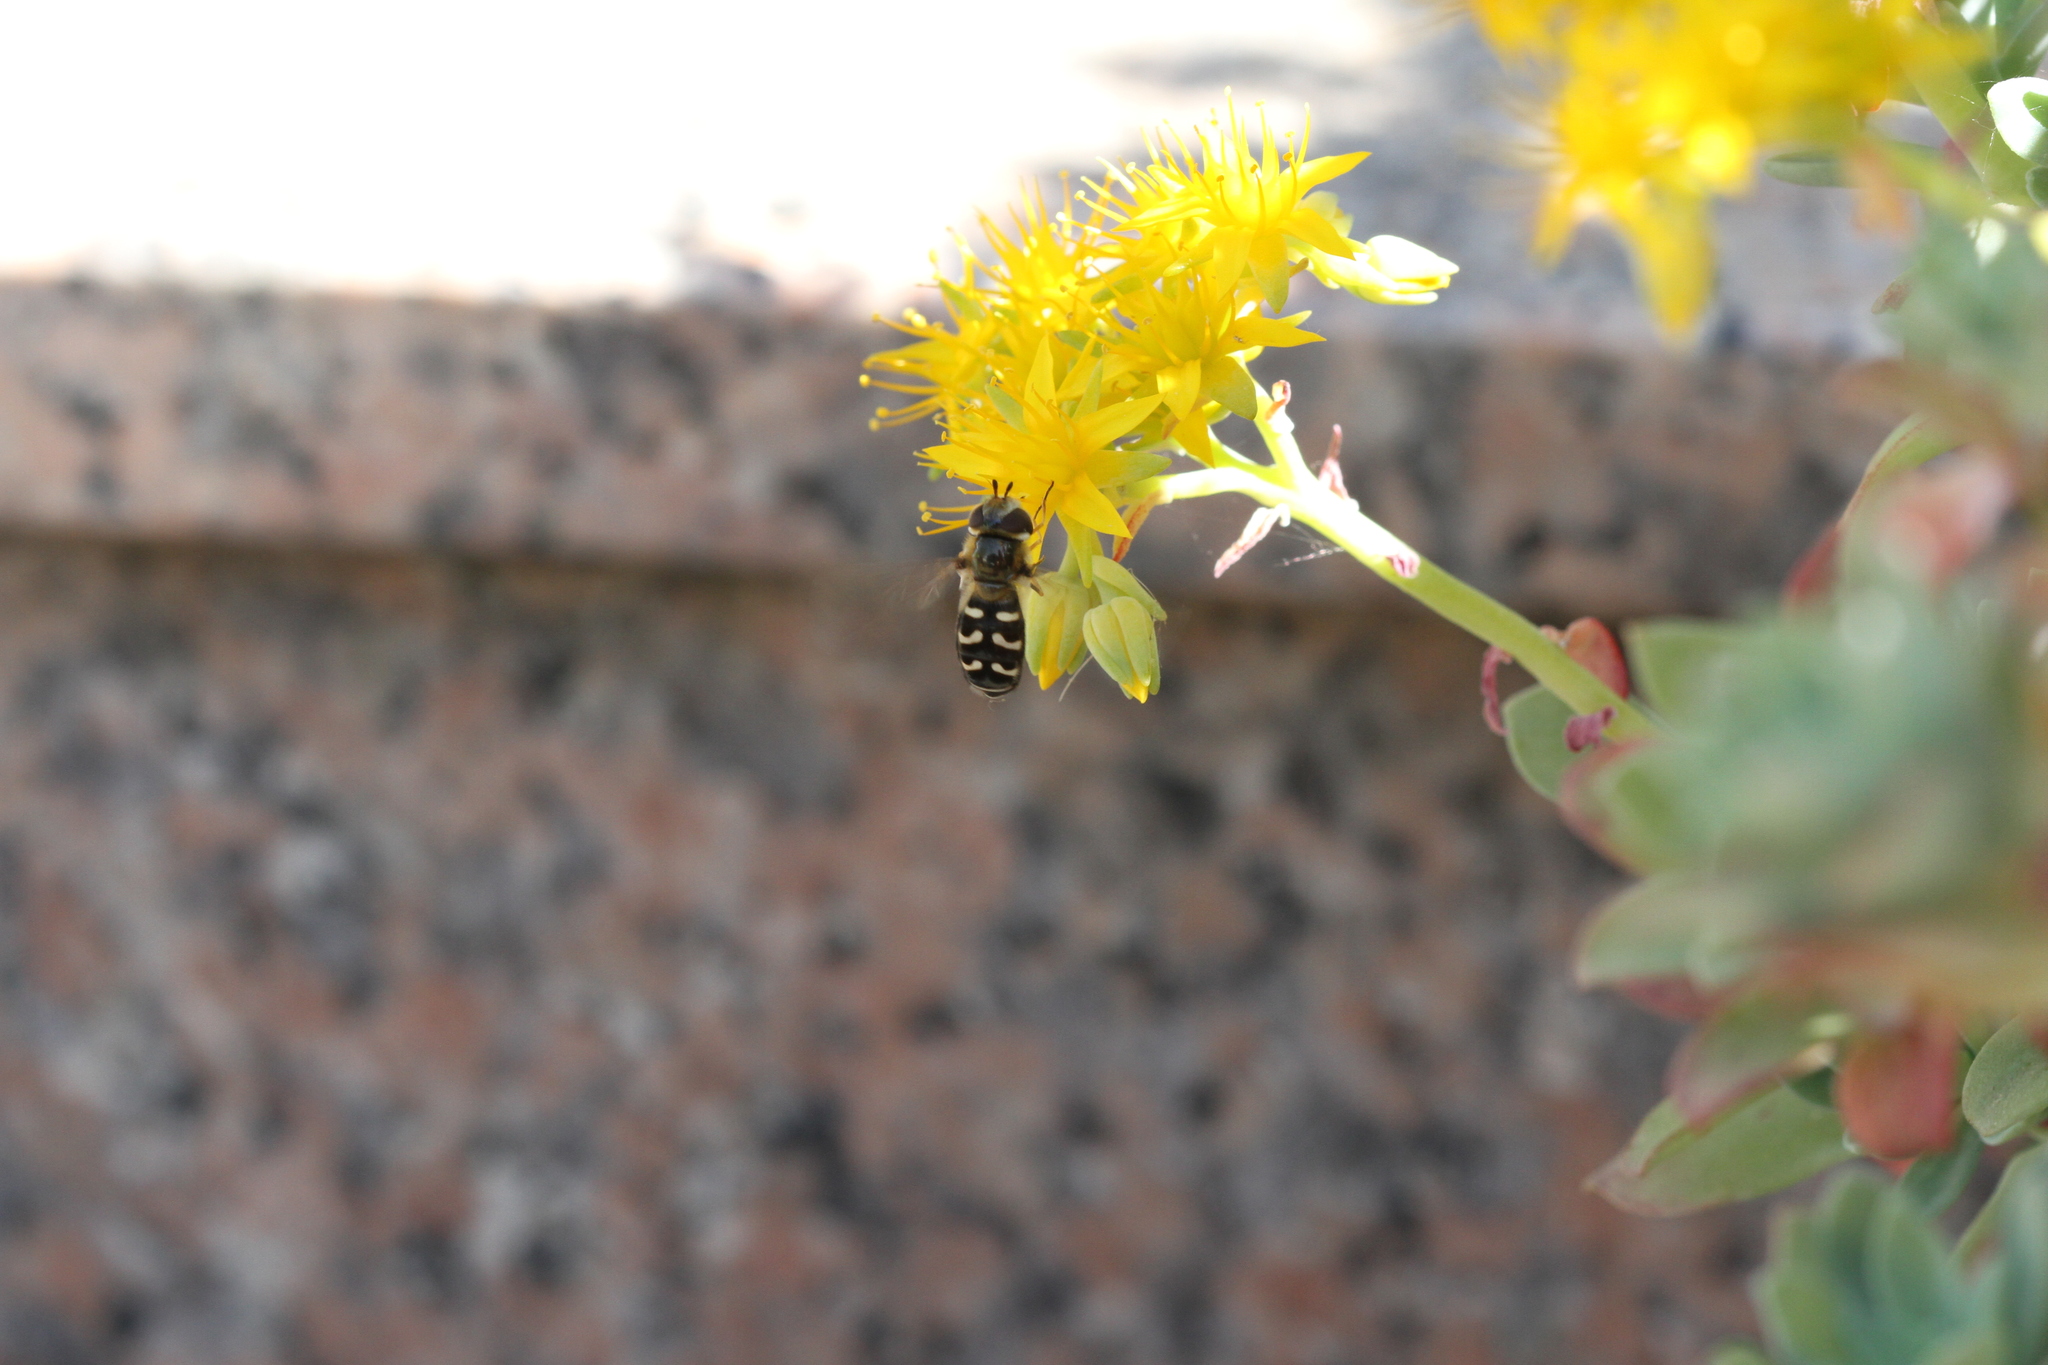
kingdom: Animalia
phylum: Arthropoda
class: Insecta
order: Diptera
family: Syrphidae
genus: Scaeva
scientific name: Scaeva pyrastri
